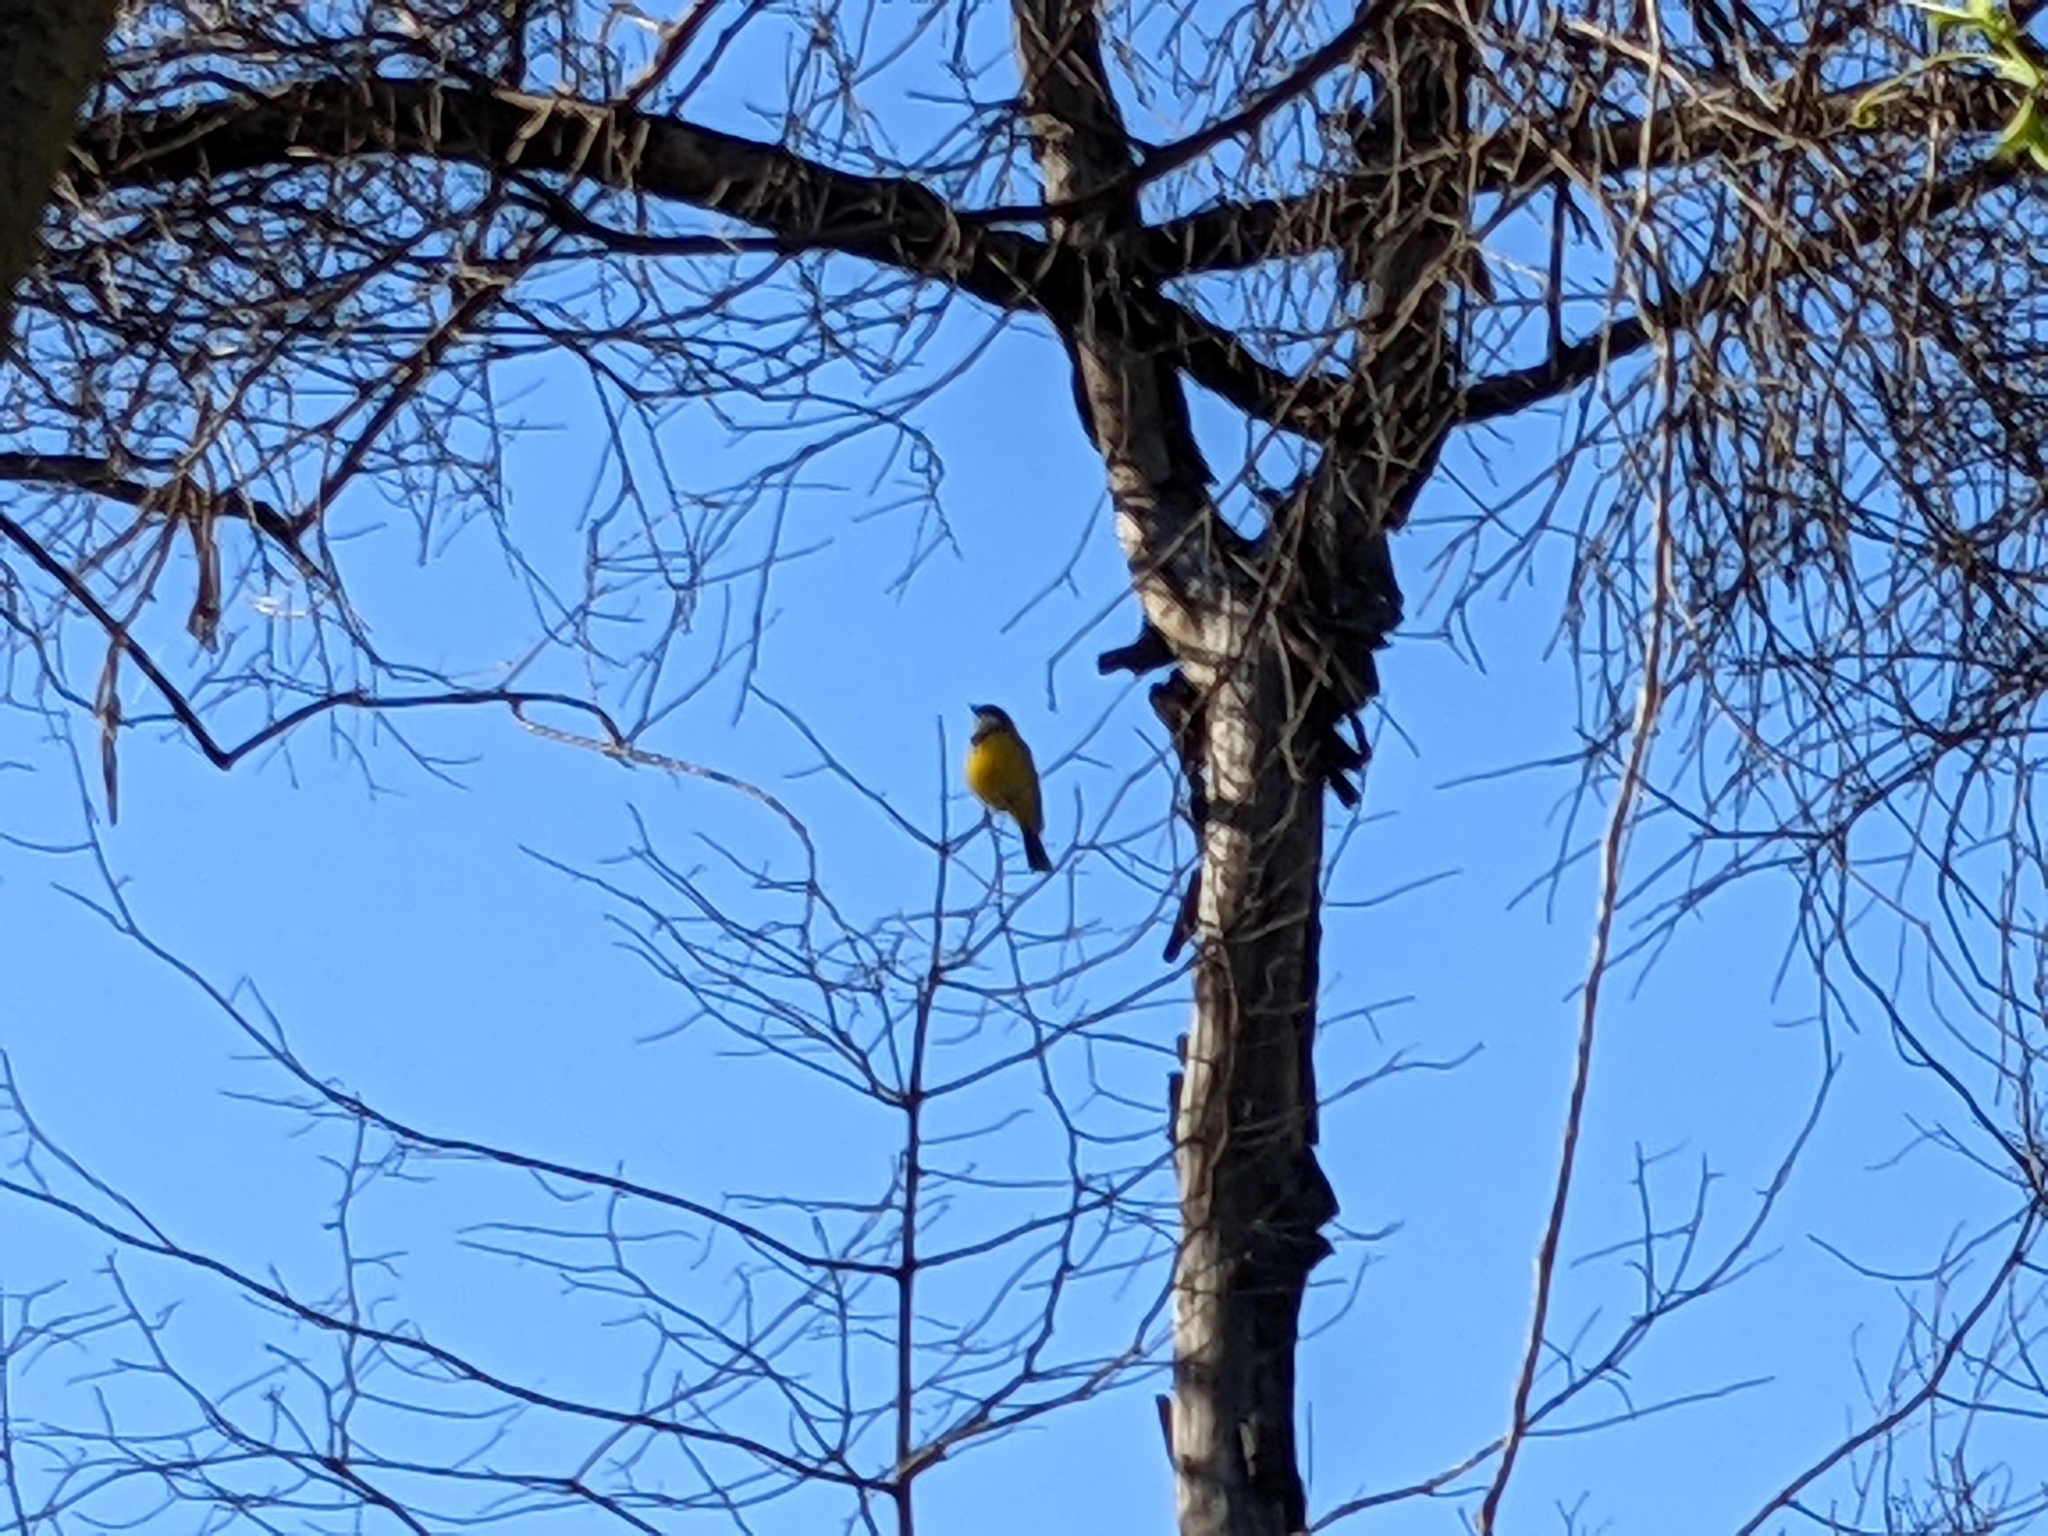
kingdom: Animalia
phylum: Chordata
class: Aves
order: Passeriformes
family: Pachycephalidae
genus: Pachycephala
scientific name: Pachycephala pectoralis
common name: Australian golden whistler
